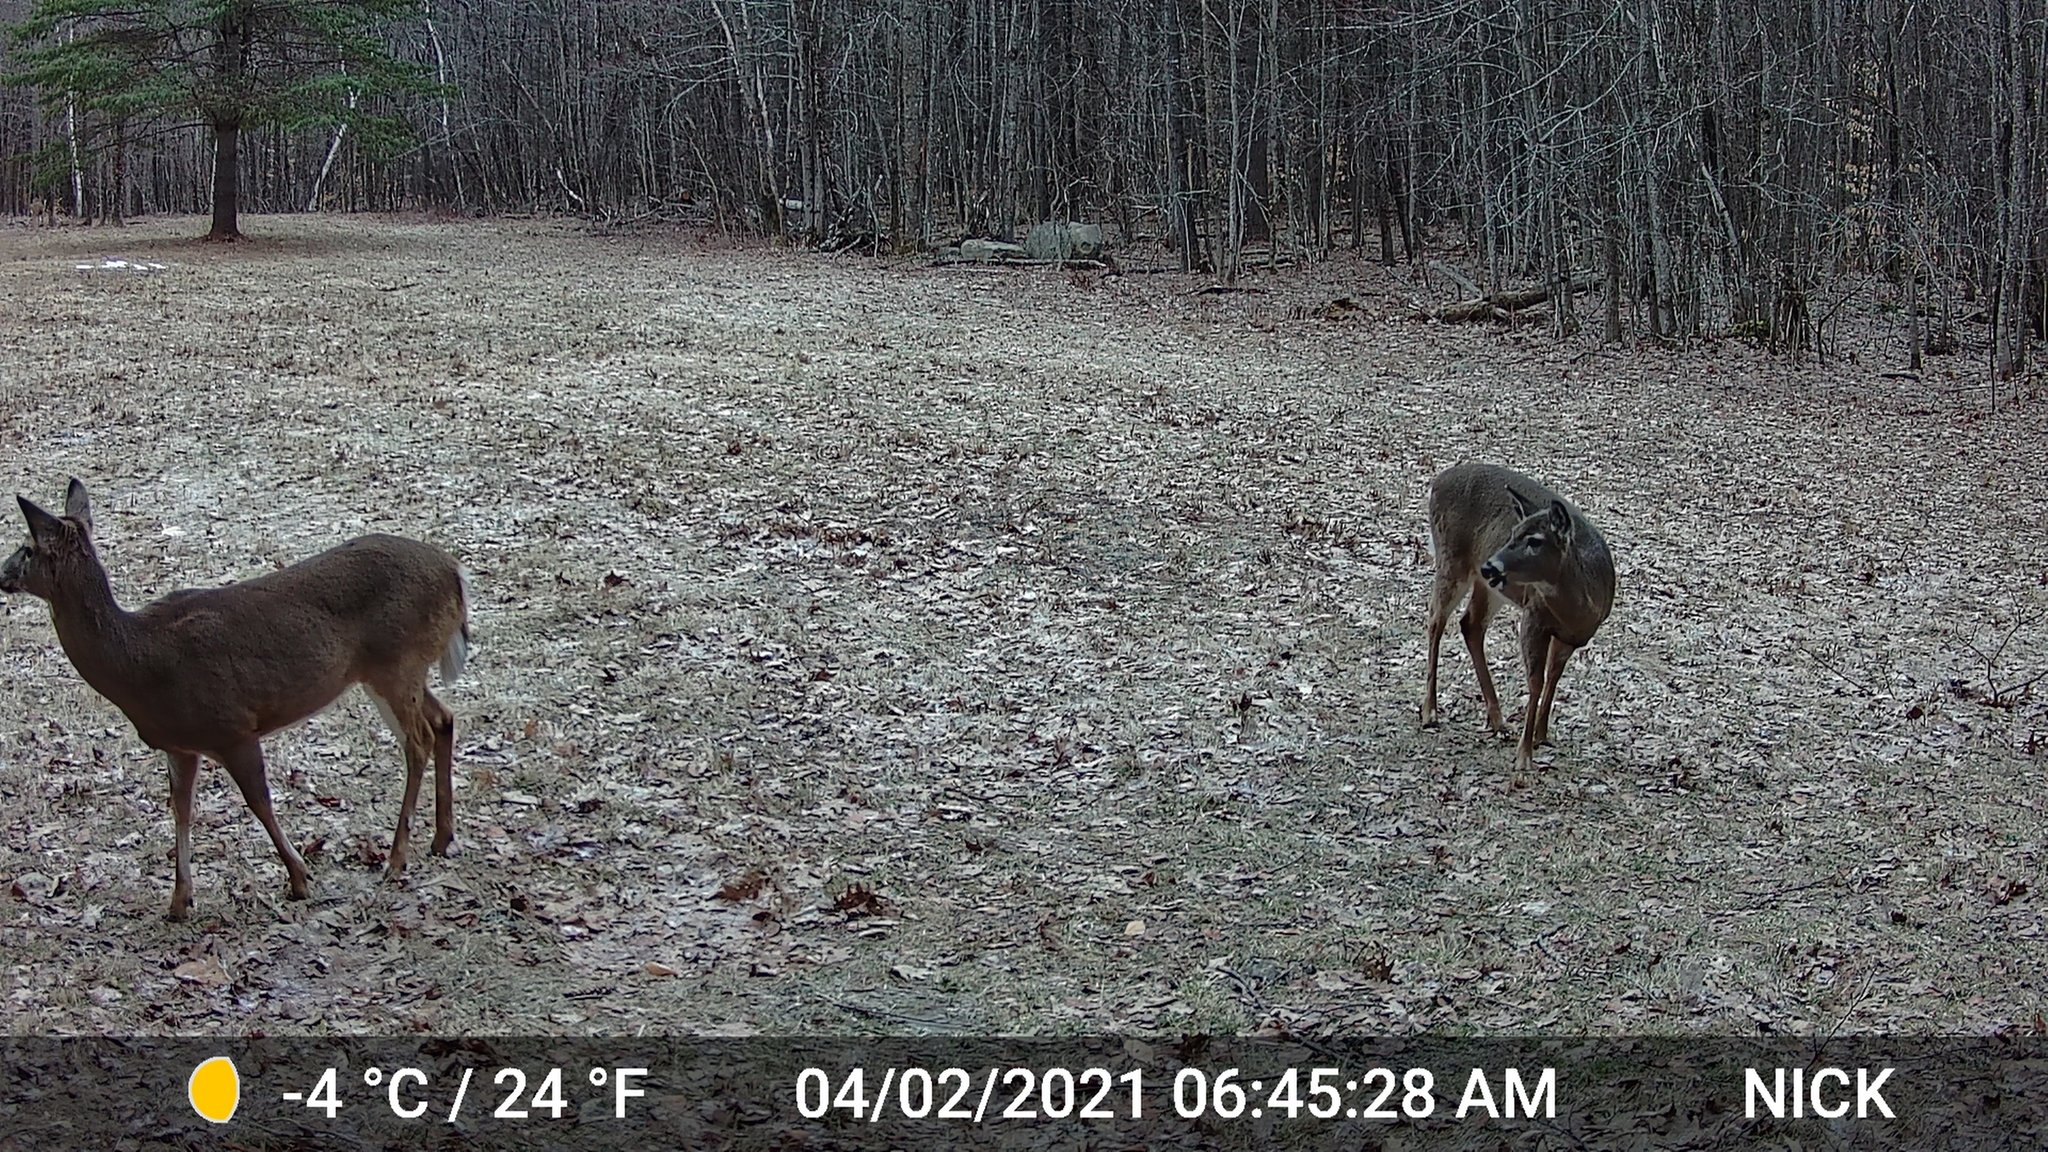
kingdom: Animalia
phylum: Chordata
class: Mammalia
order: Artiodactyla
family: Cervidae
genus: Odocoileus
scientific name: Odocoileus virginianus
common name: White-tailed deer
